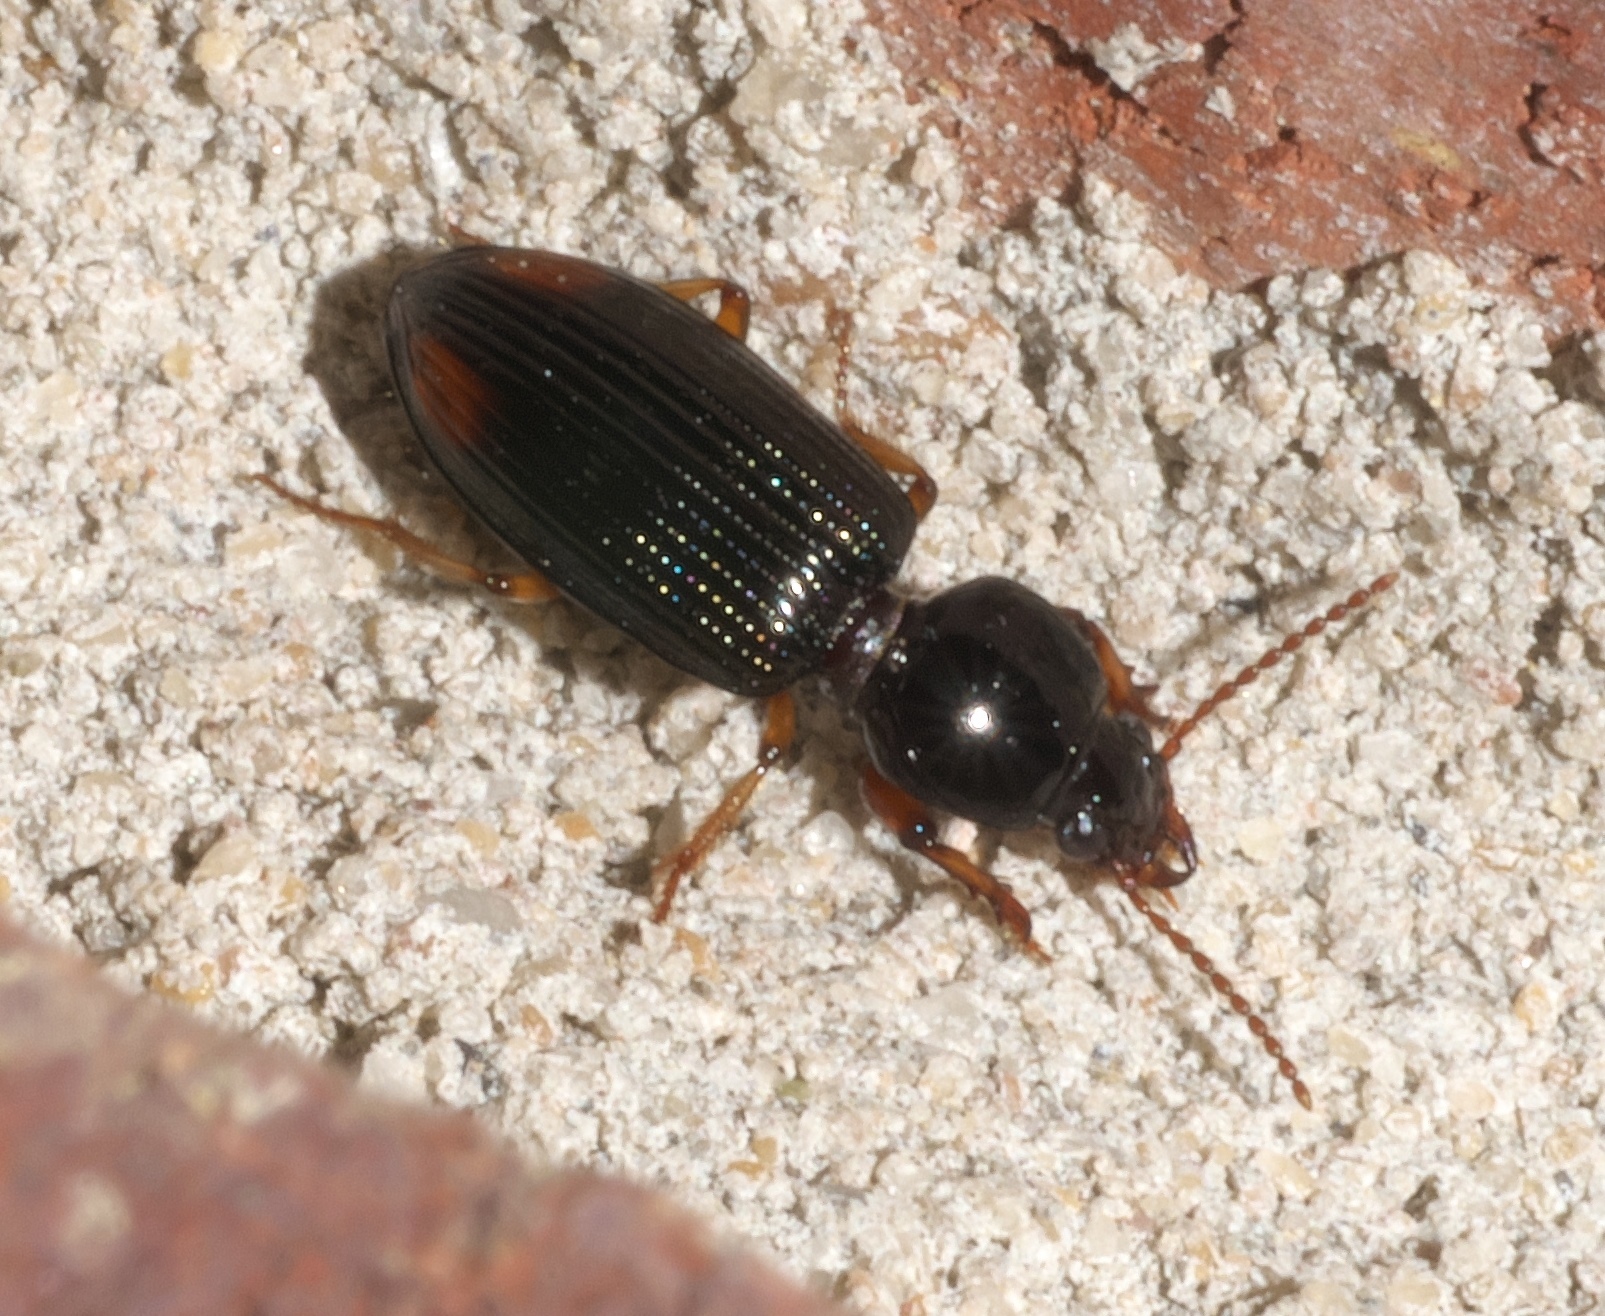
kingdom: Animalia
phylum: Arthropoda
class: Insecta
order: Coleoptera
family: Carabidae
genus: Aspidoglossa
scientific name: Aspidoglossa subangulata
